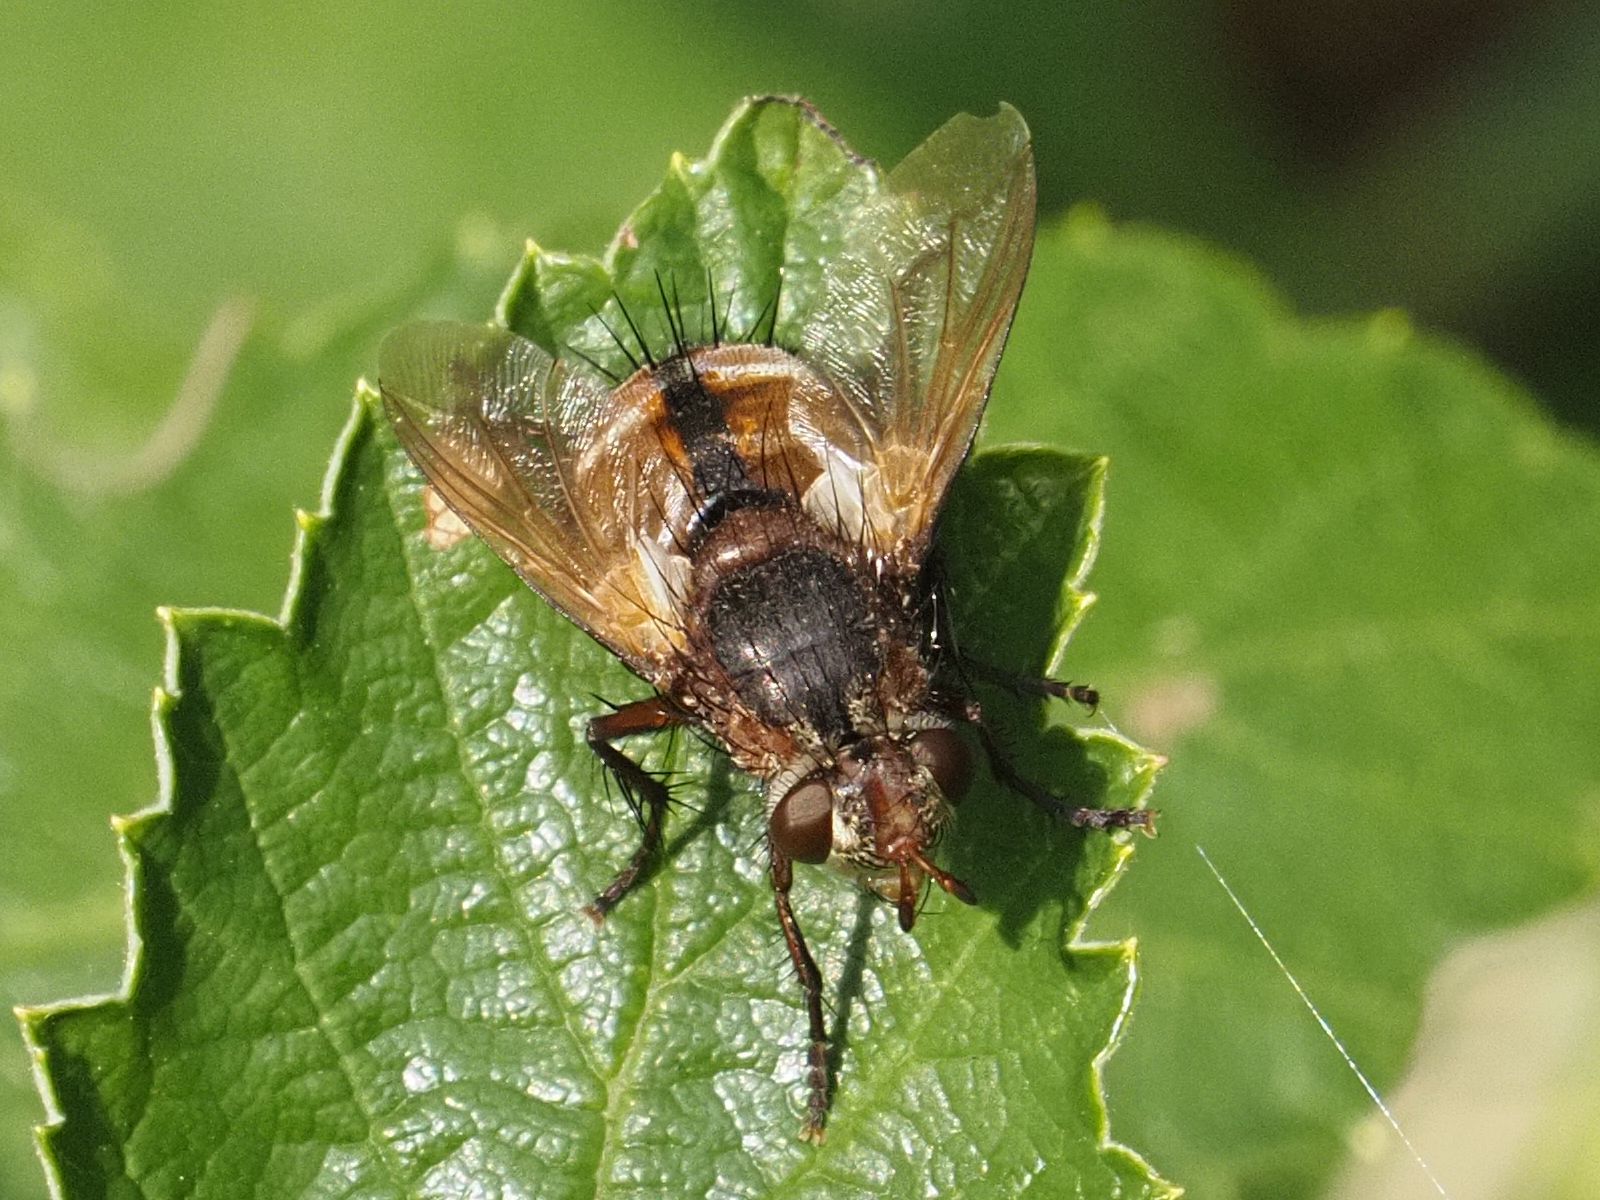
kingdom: Animalia
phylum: Arthropoda
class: Insecta
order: Diptera
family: Tachinidae
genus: Tachina
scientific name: Tachina fera
